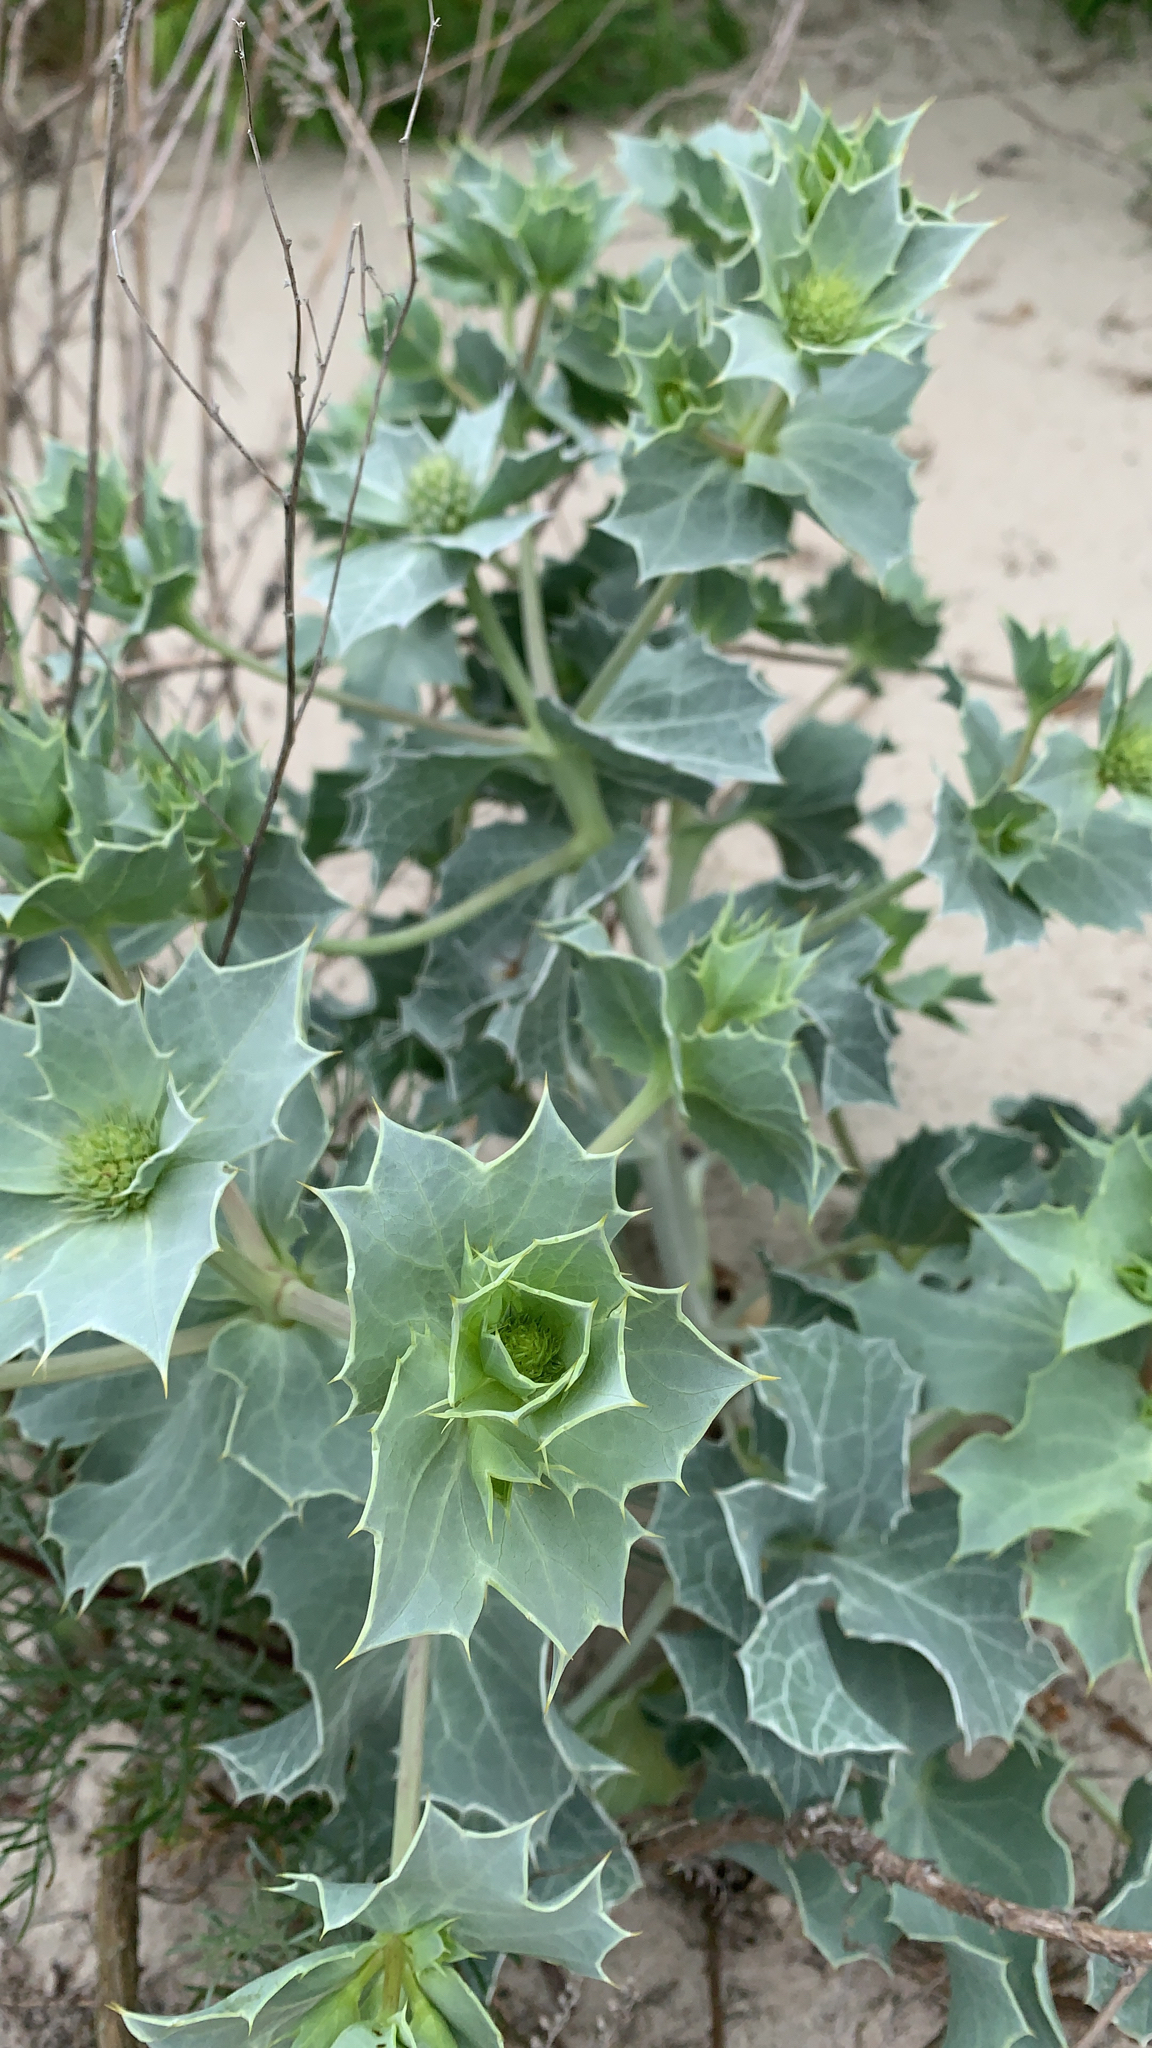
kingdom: Plantae
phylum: Tracheophyta
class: Magnoliopsida
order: Apiales
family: Apiaceae
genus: Eryngium
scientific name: Eryngium maritimum
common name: Sea-holly
